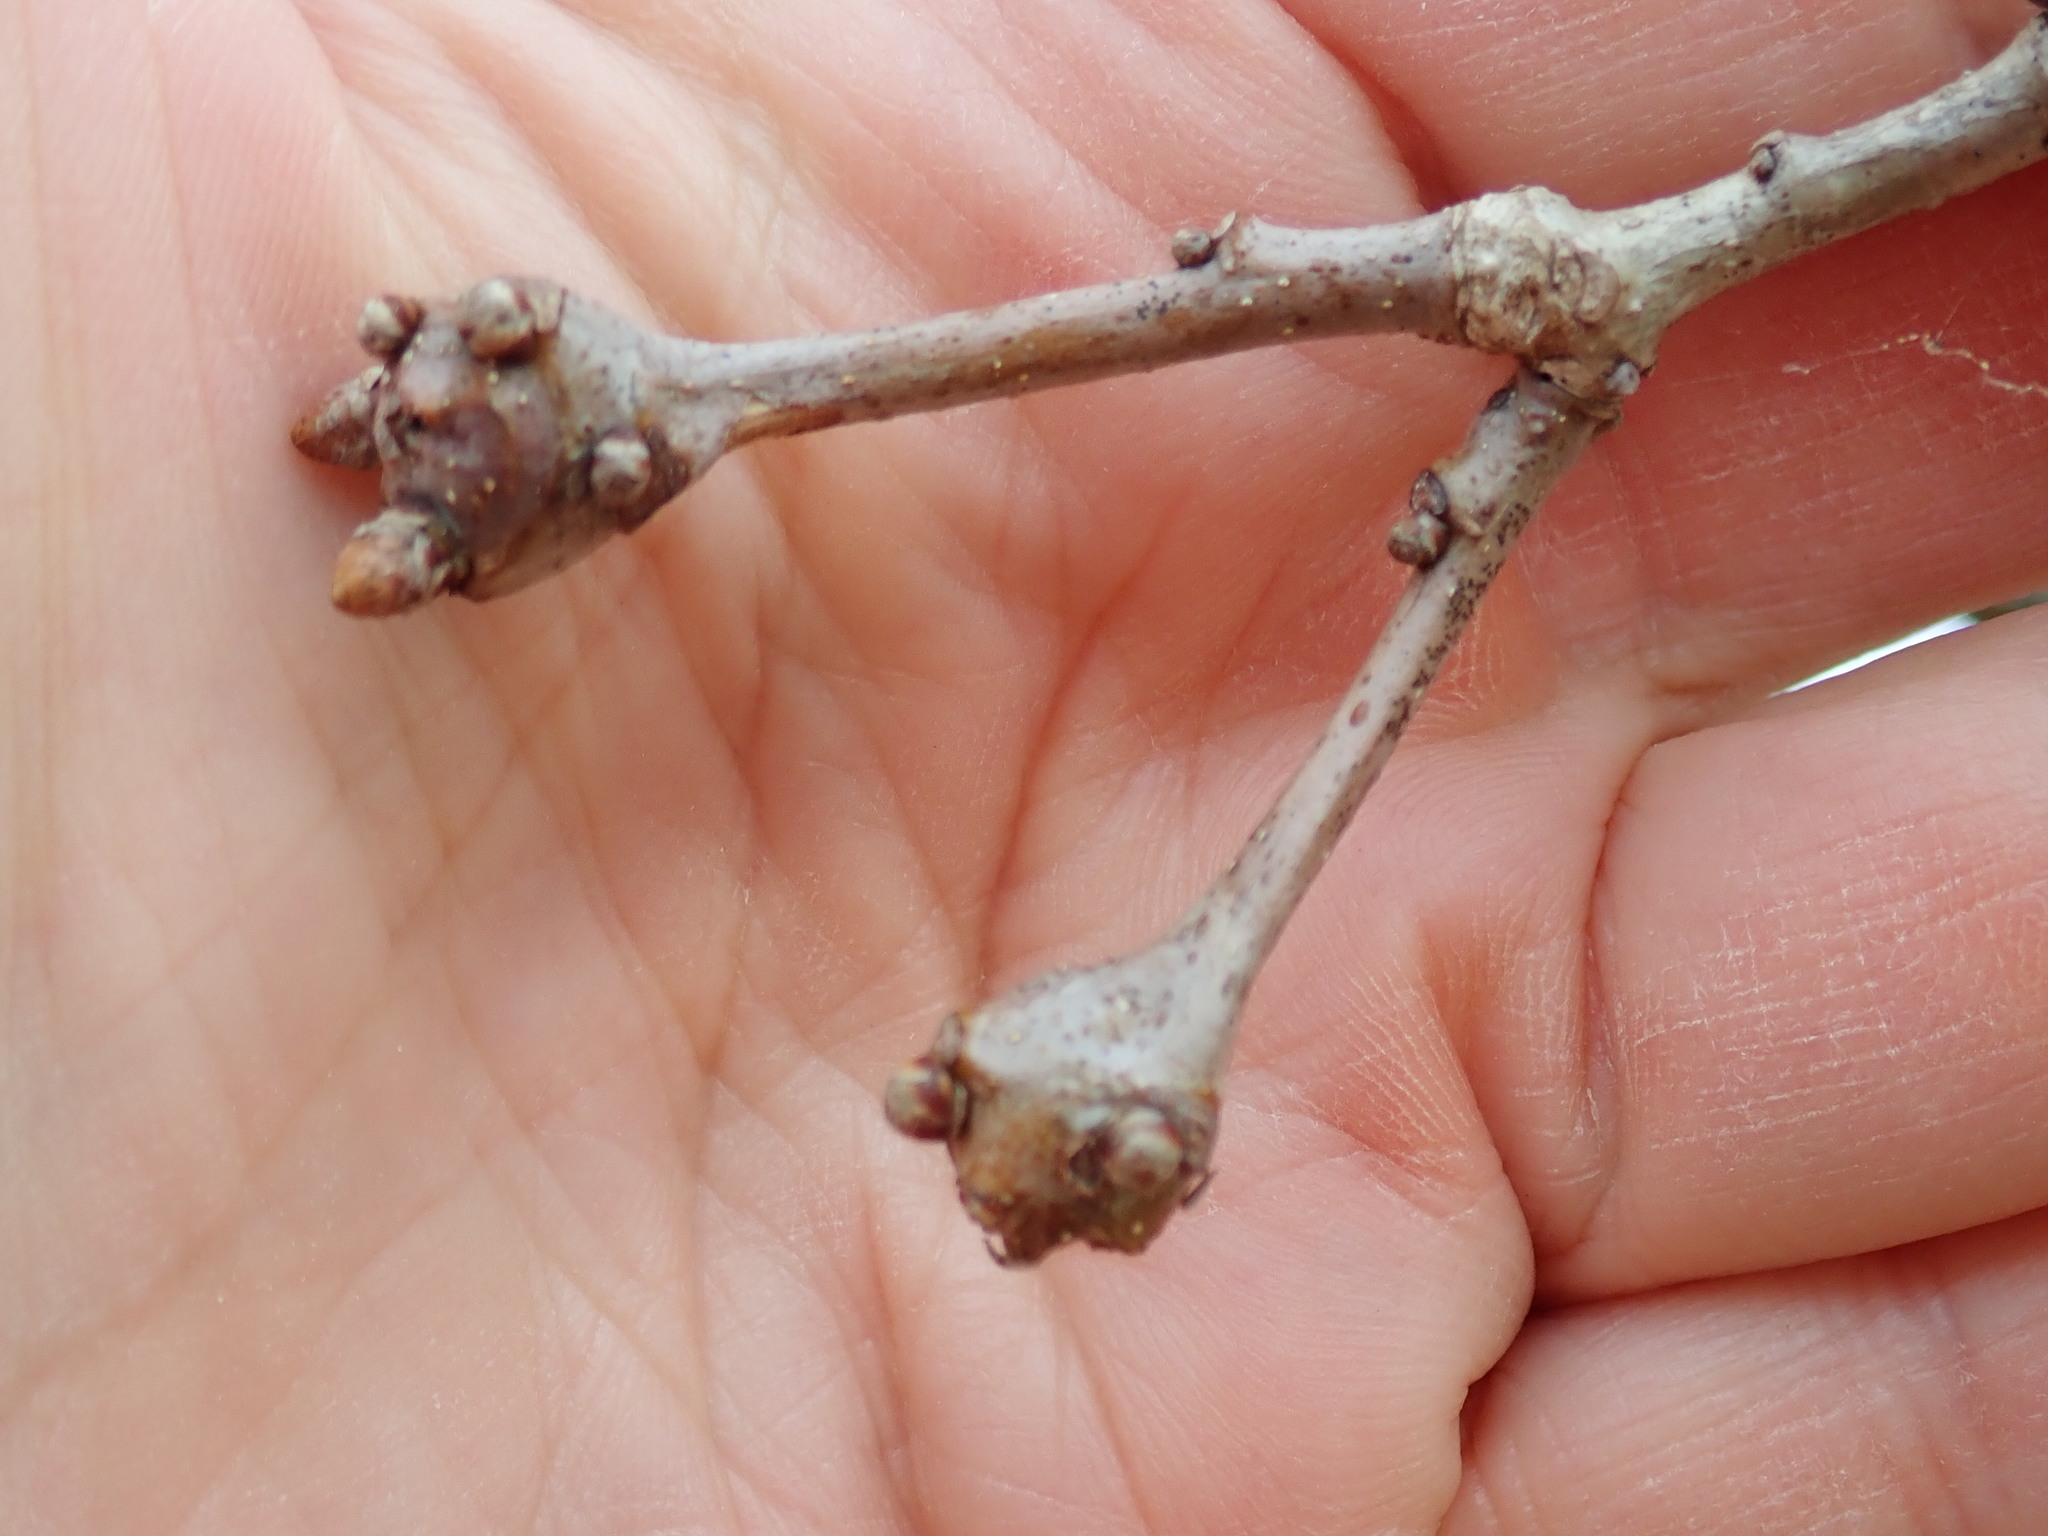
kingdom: Animalia
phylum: Arthropoda
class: Insecta
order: Hymenoptera
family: Cynipidae
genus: Callirhytis
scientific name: Callirhytis clavula
